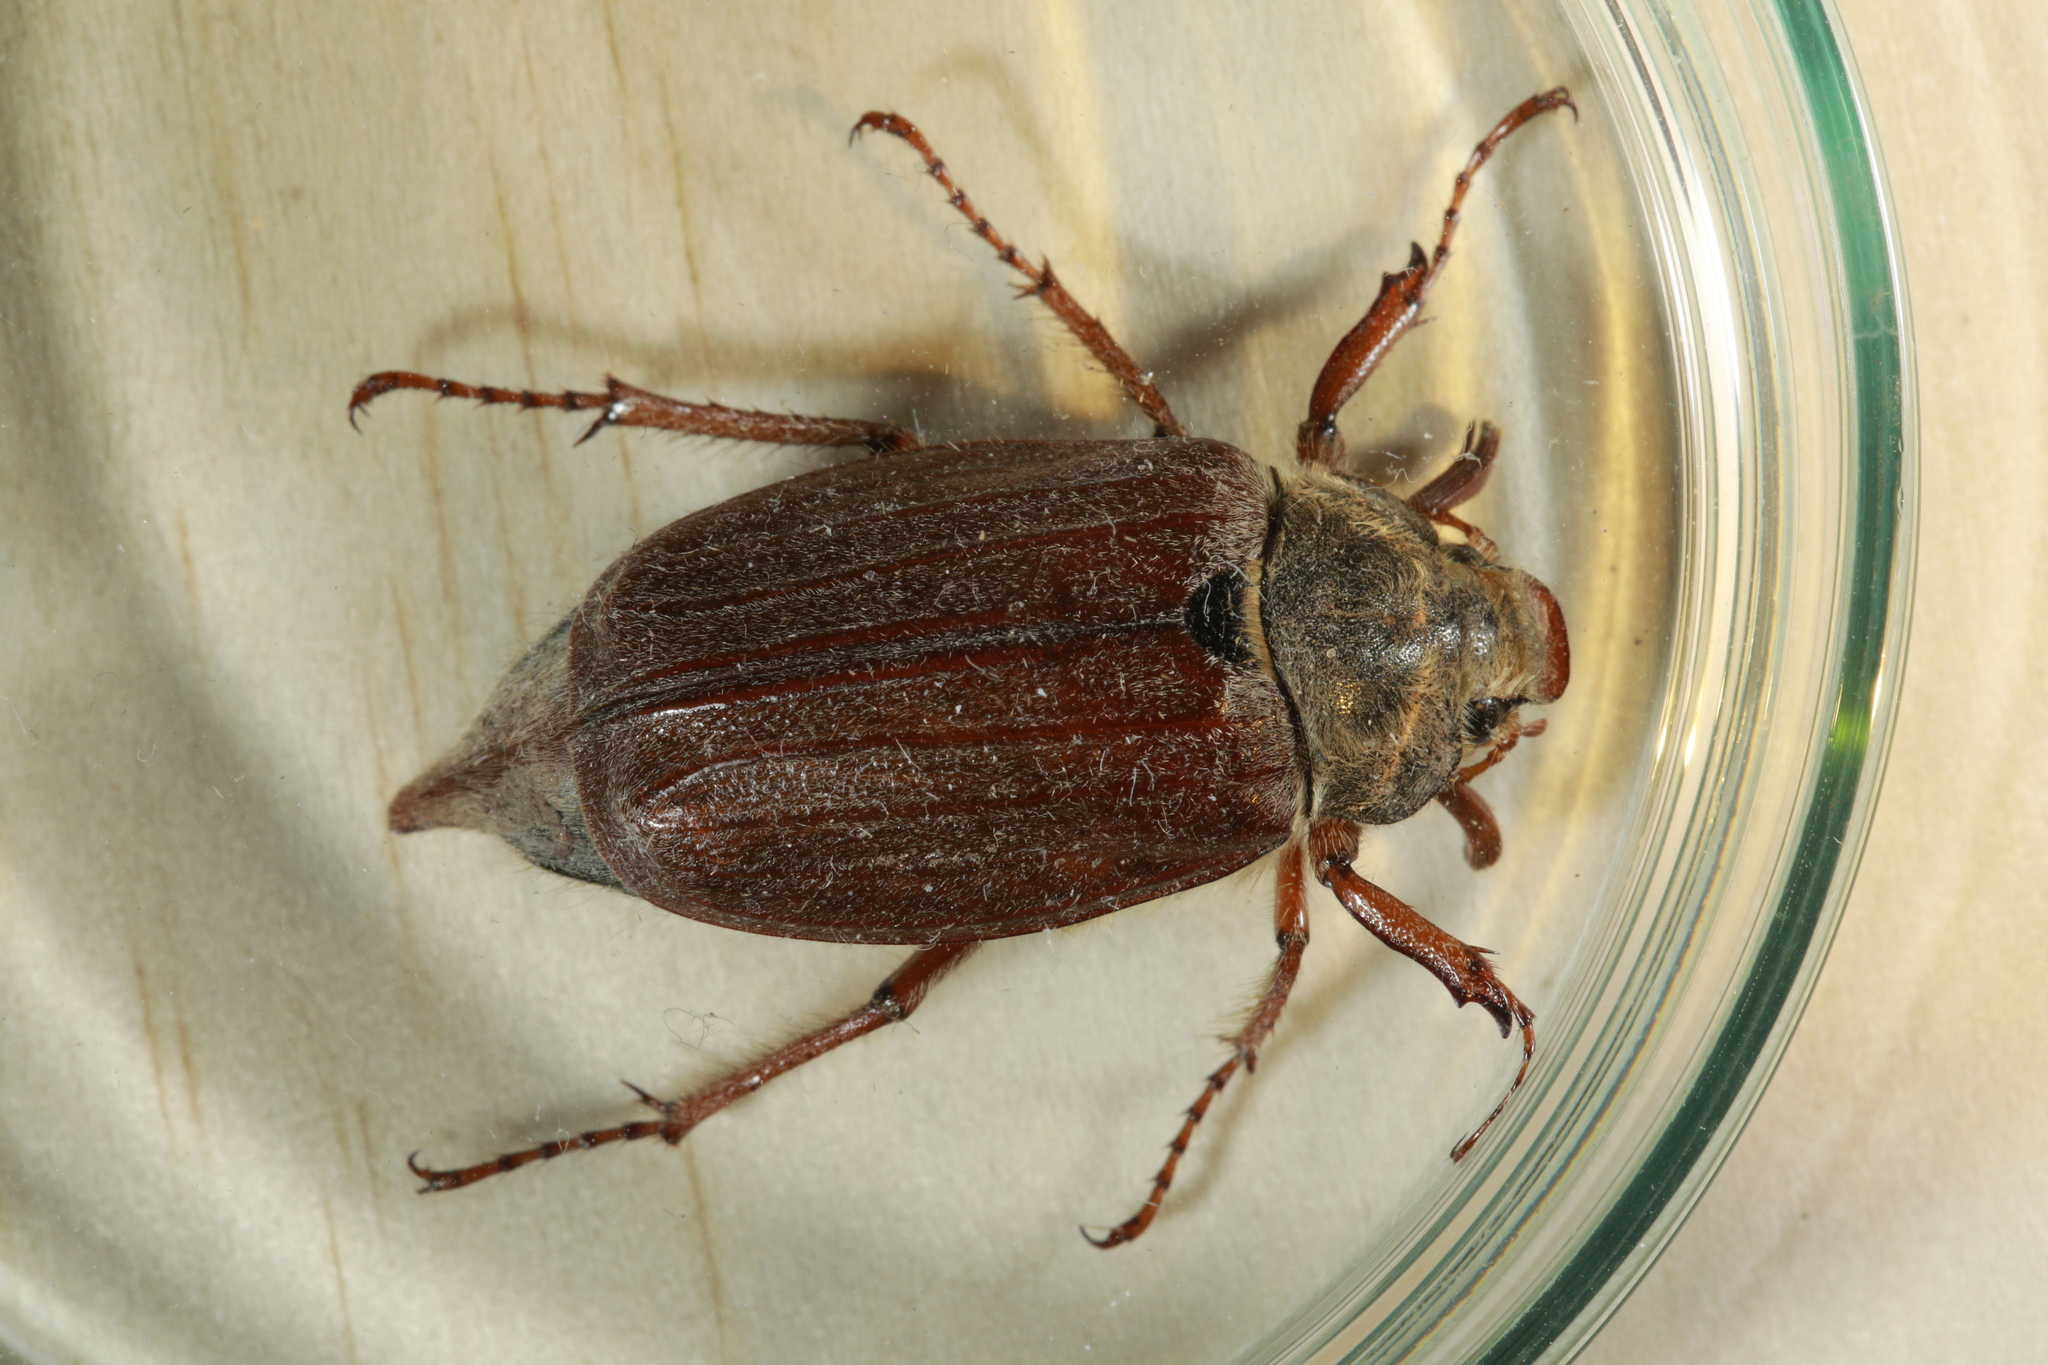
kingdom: Animalia
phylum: Arthropoda
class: Insecta
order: Coleoptera
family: Scarabaeidae
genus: Melolontha
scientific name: Melolontha melolontha
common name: Cockchafer maybeetle
